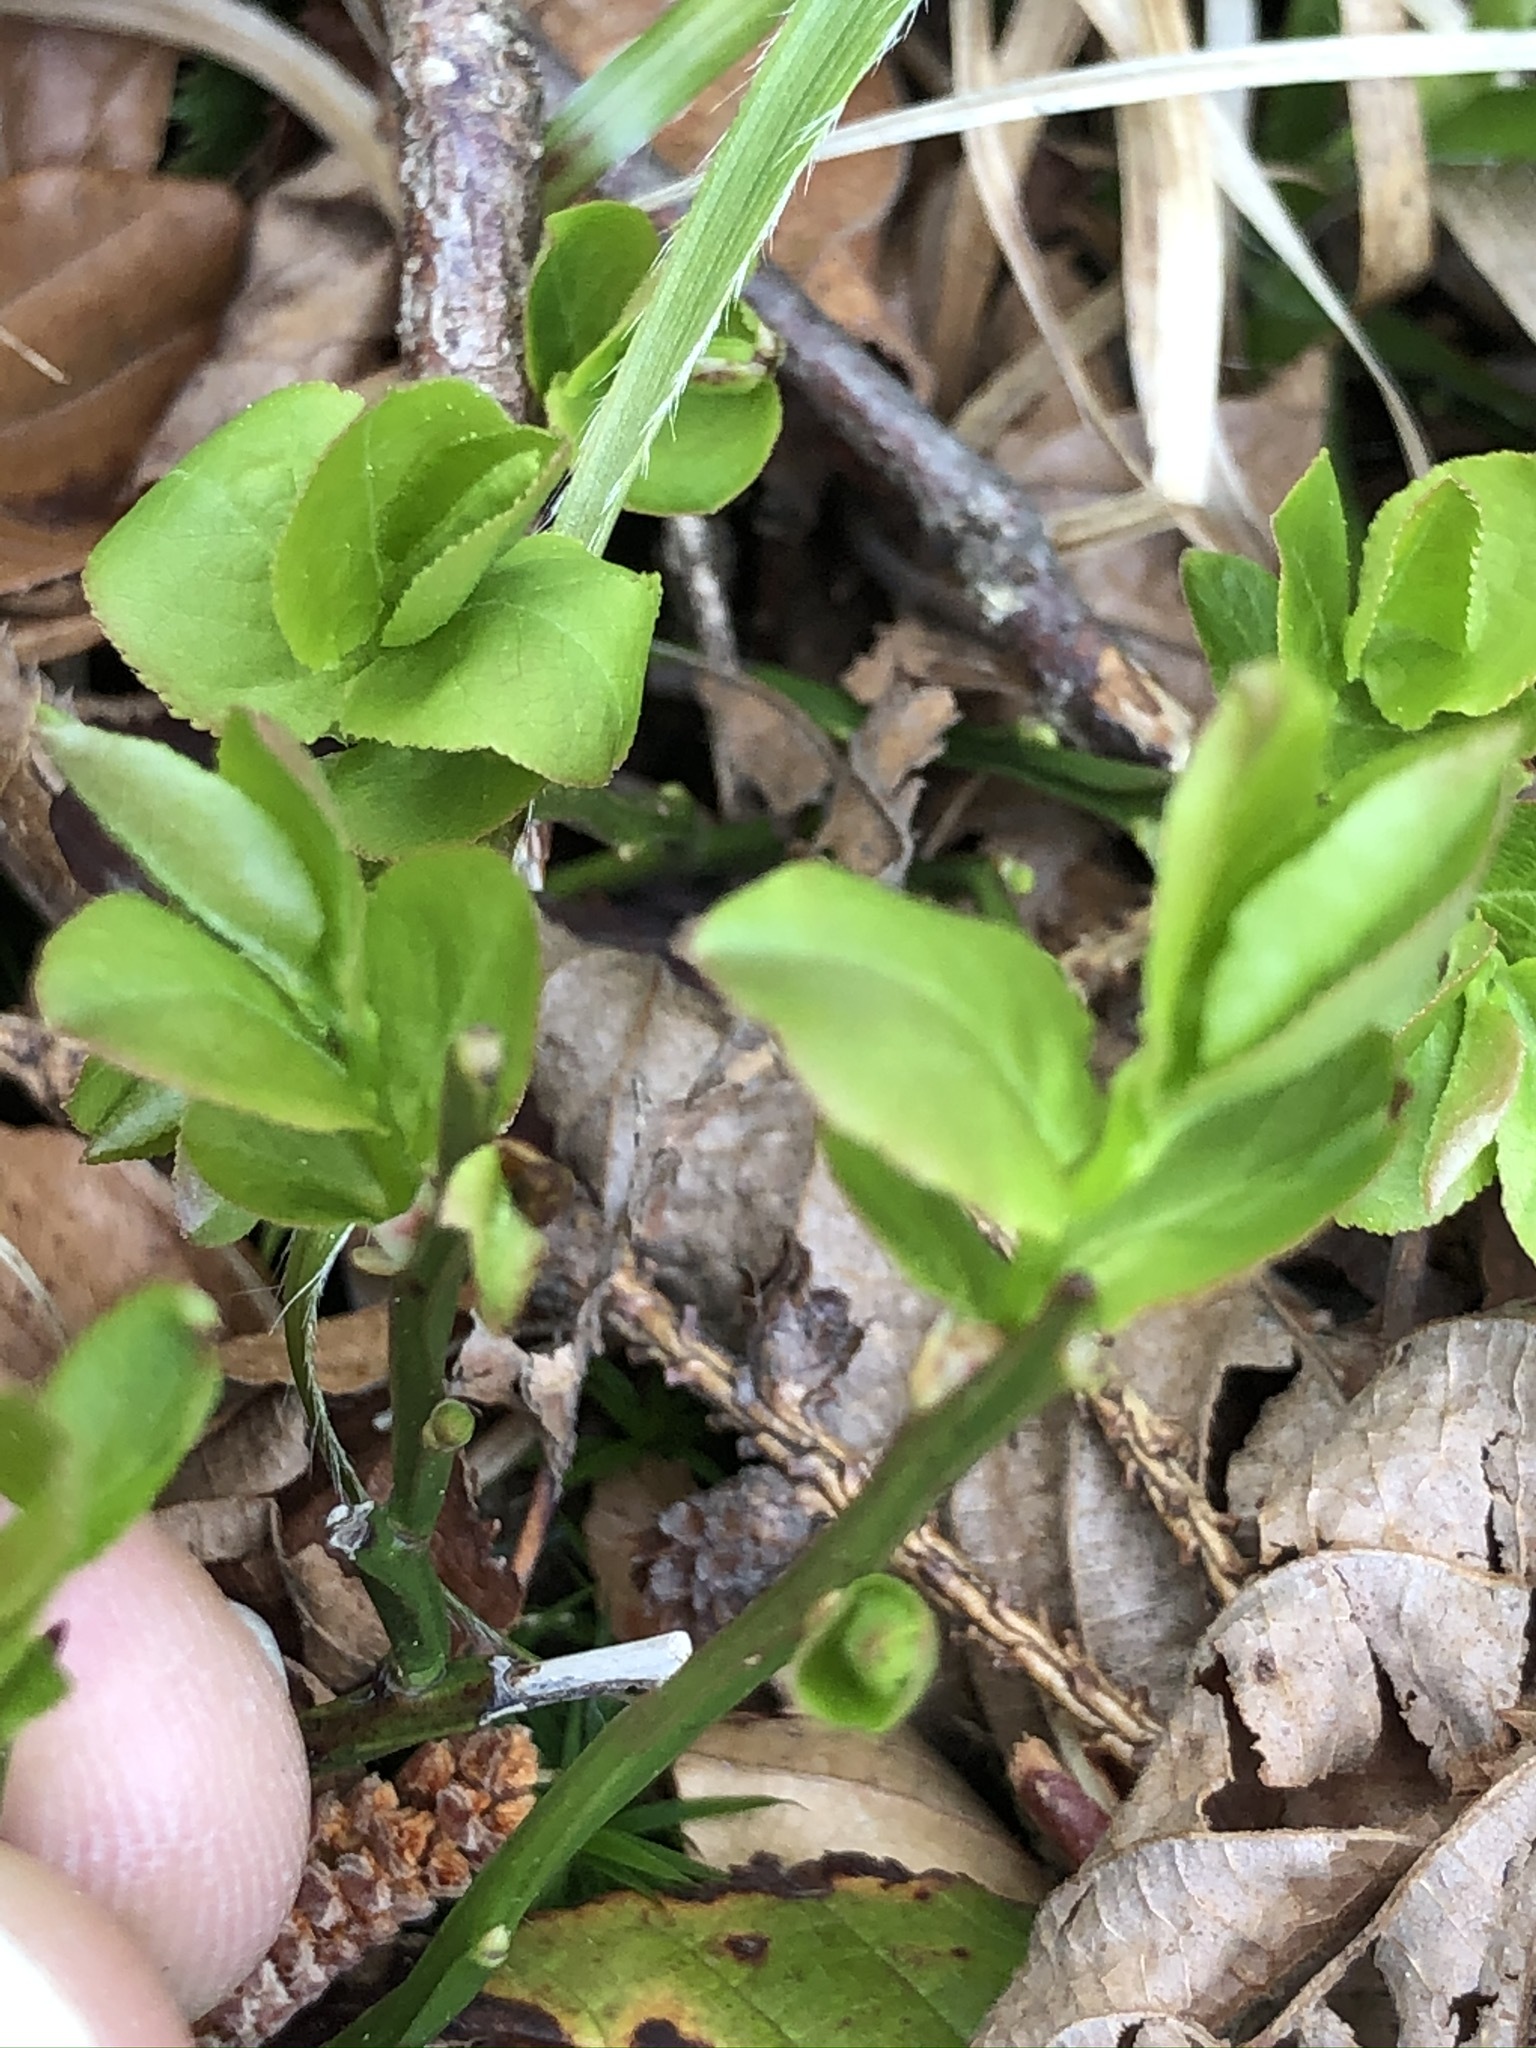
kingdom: Plantae
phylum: Tracheophyta
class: Magnoliopsida
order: Ericales
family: Ericaceae
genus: Vaccinium
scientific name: Vaccinium myrtillus
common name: Bilberry
